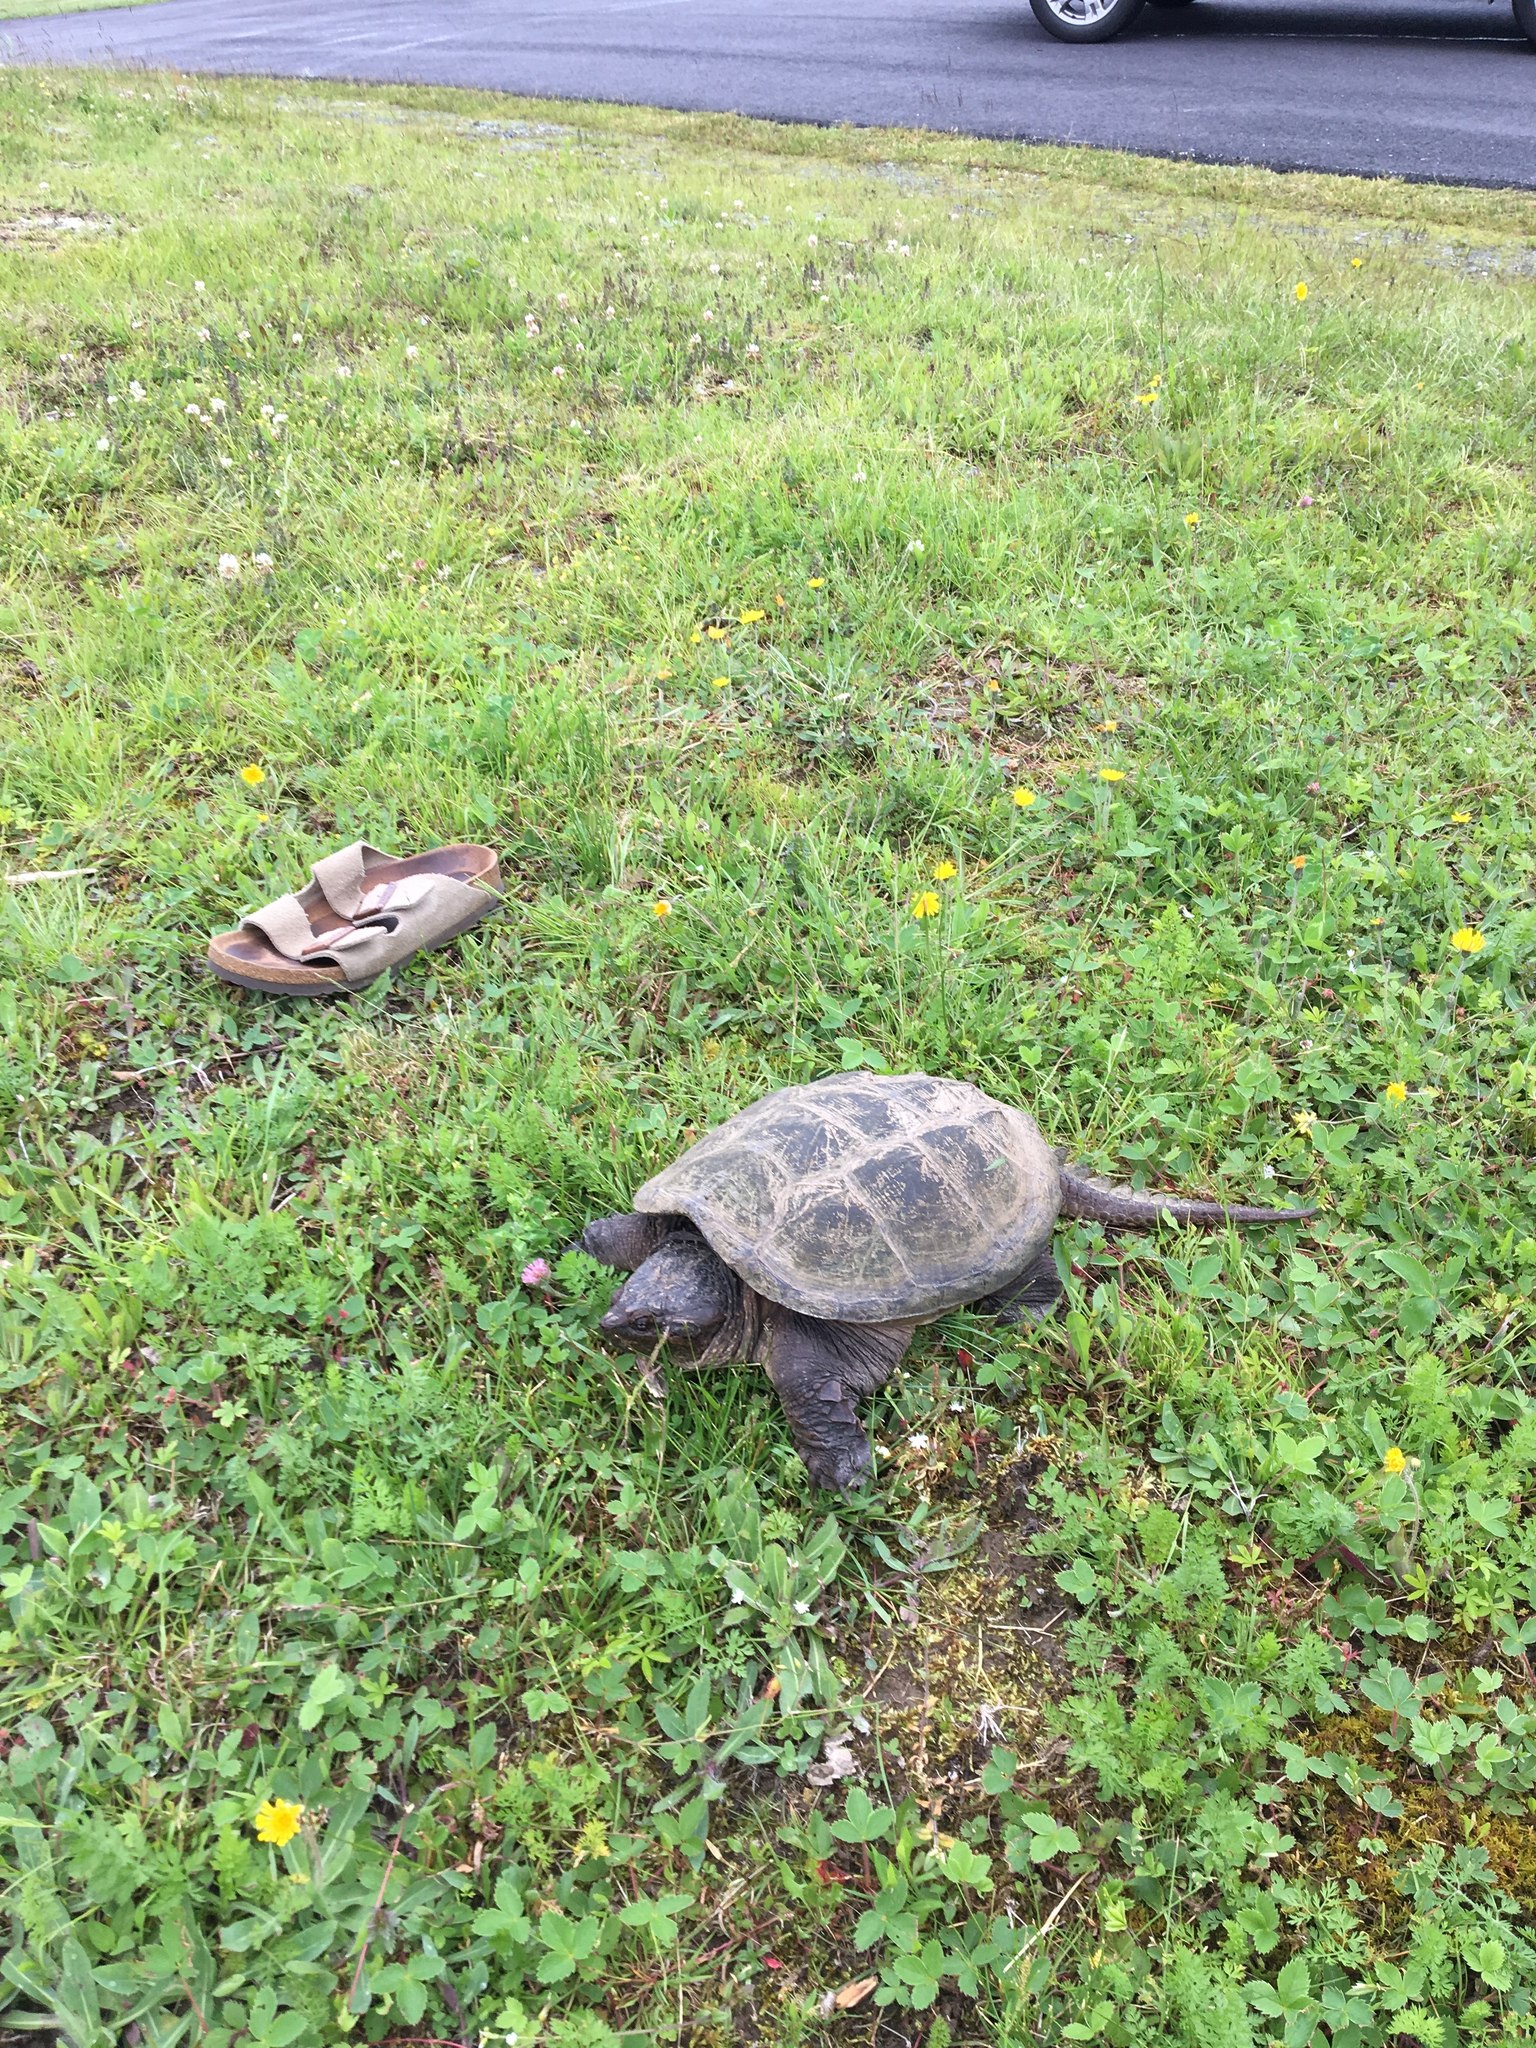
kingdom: Animalia
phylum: Chordata
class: Testudines
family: Chelydridae
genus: Chelydra
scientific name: Chelydra serpentina
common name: Common snapping turtle
